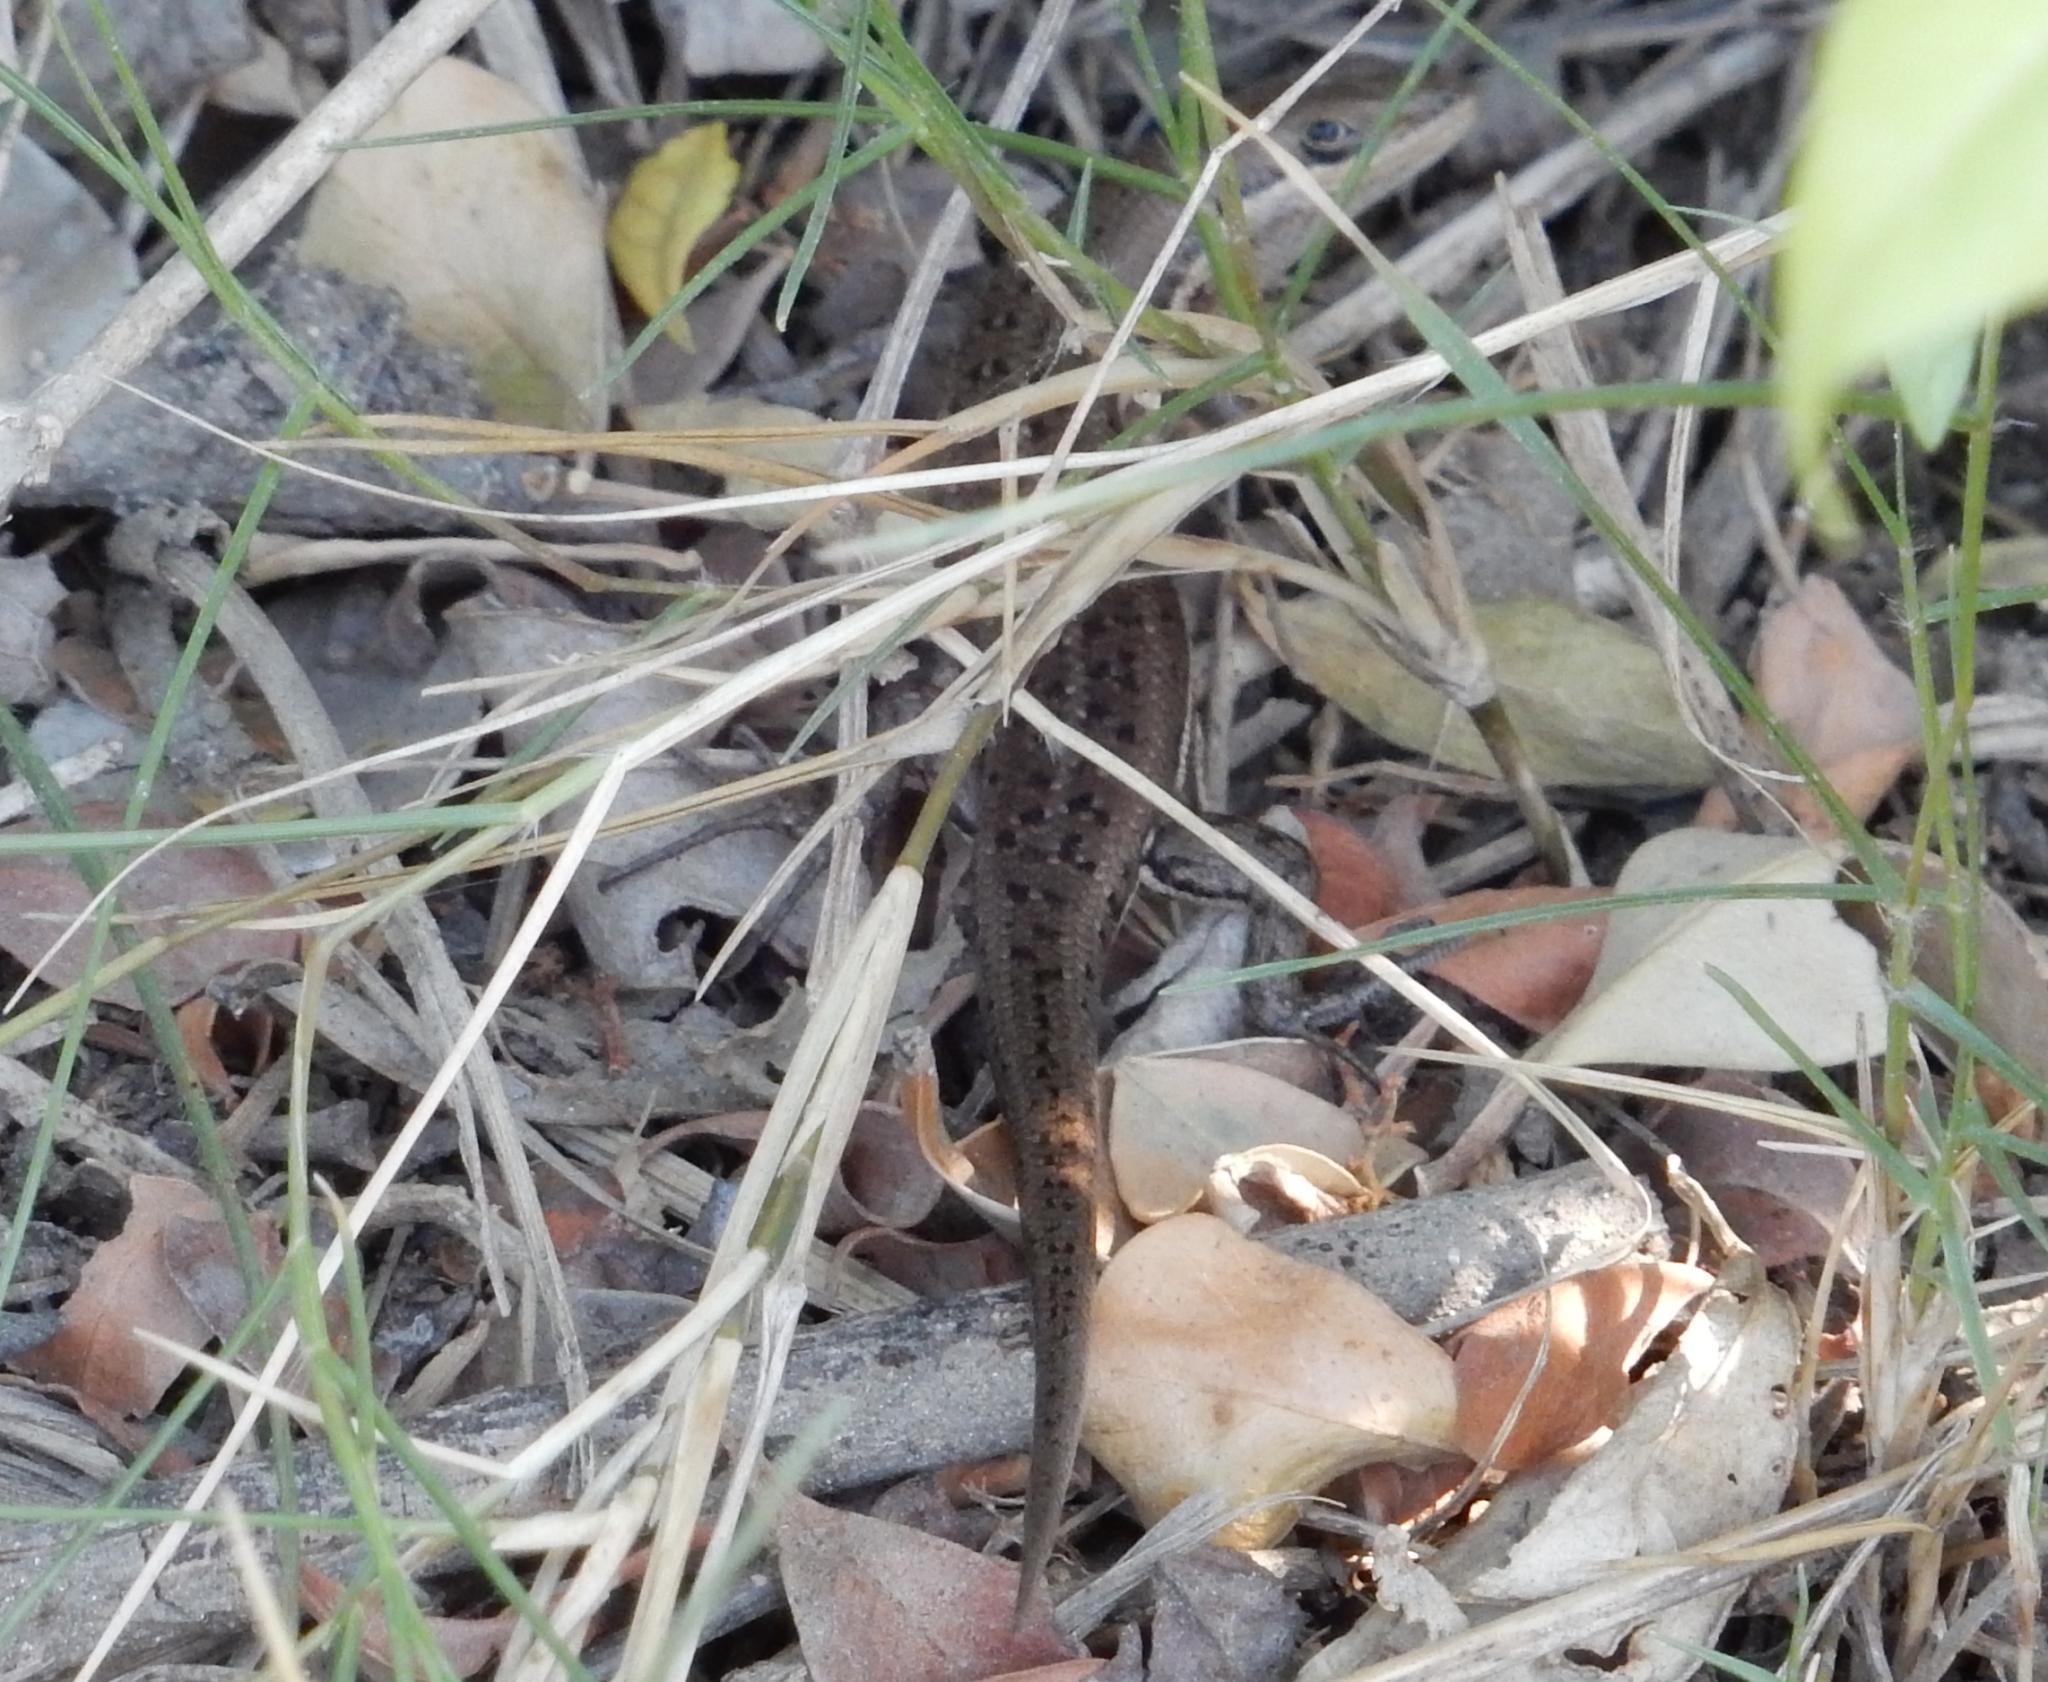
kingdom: Animalia
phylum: Chordata
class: Squamata
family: Scincidae
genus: Trachylepis
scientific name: Trachylepis varia
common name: Eastern variable skink
